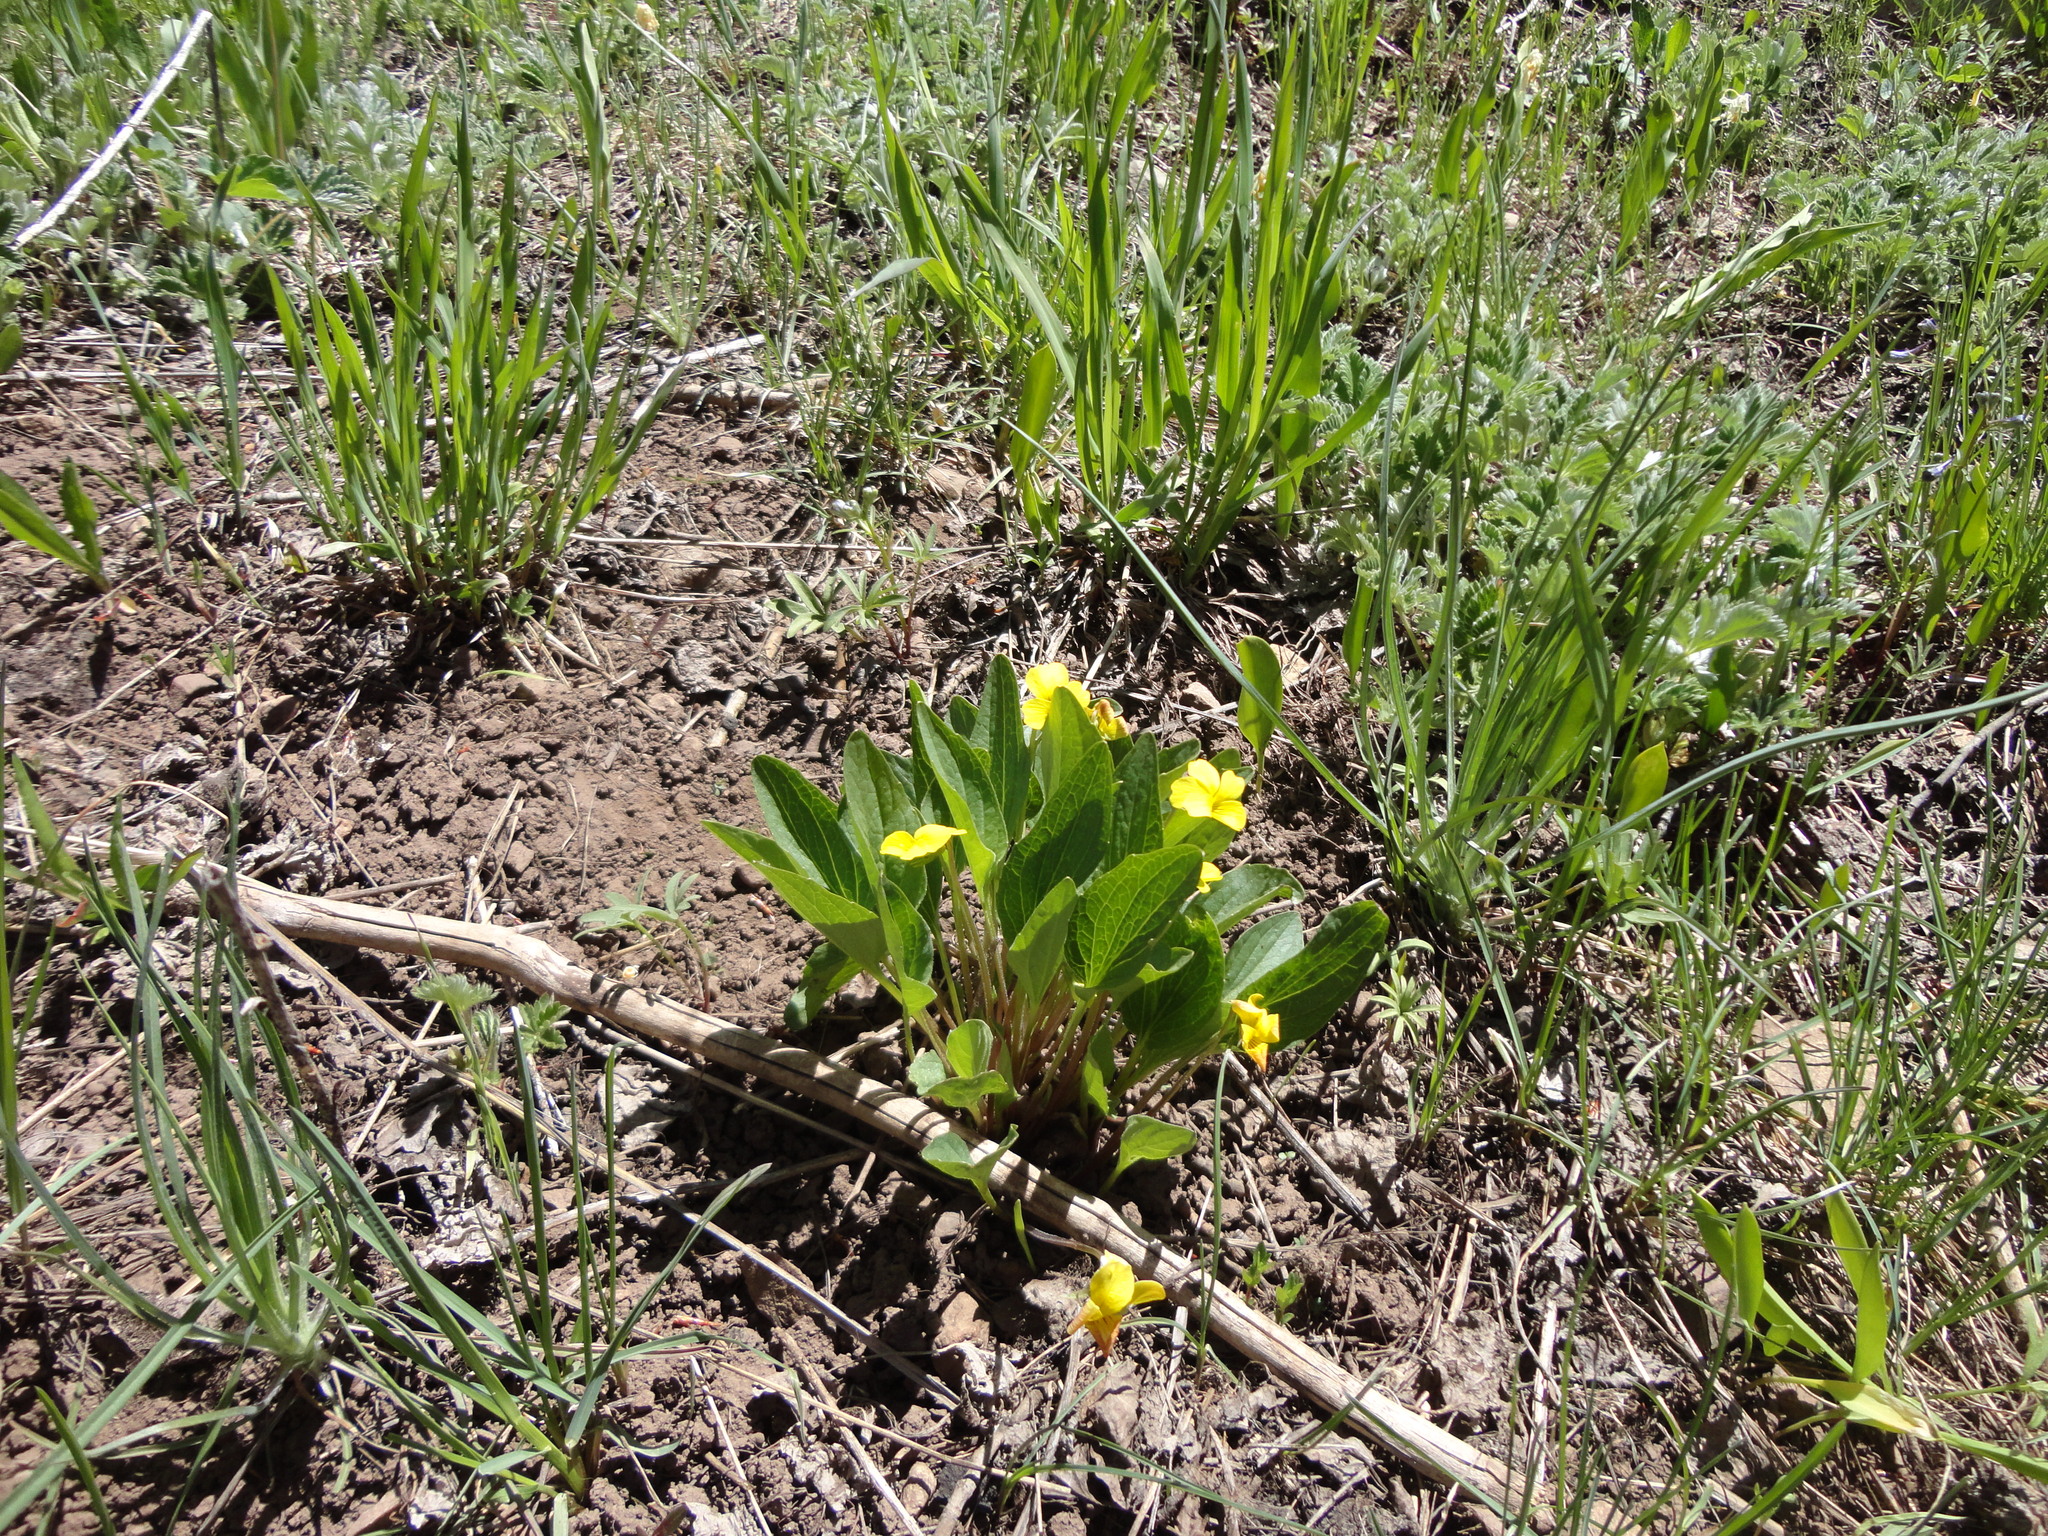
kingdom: Plantae
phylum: Tracheophyta
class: Magnoliopsida
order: Malpighiales
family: Violaceae
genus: Viola
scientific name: Viola praemorsa
